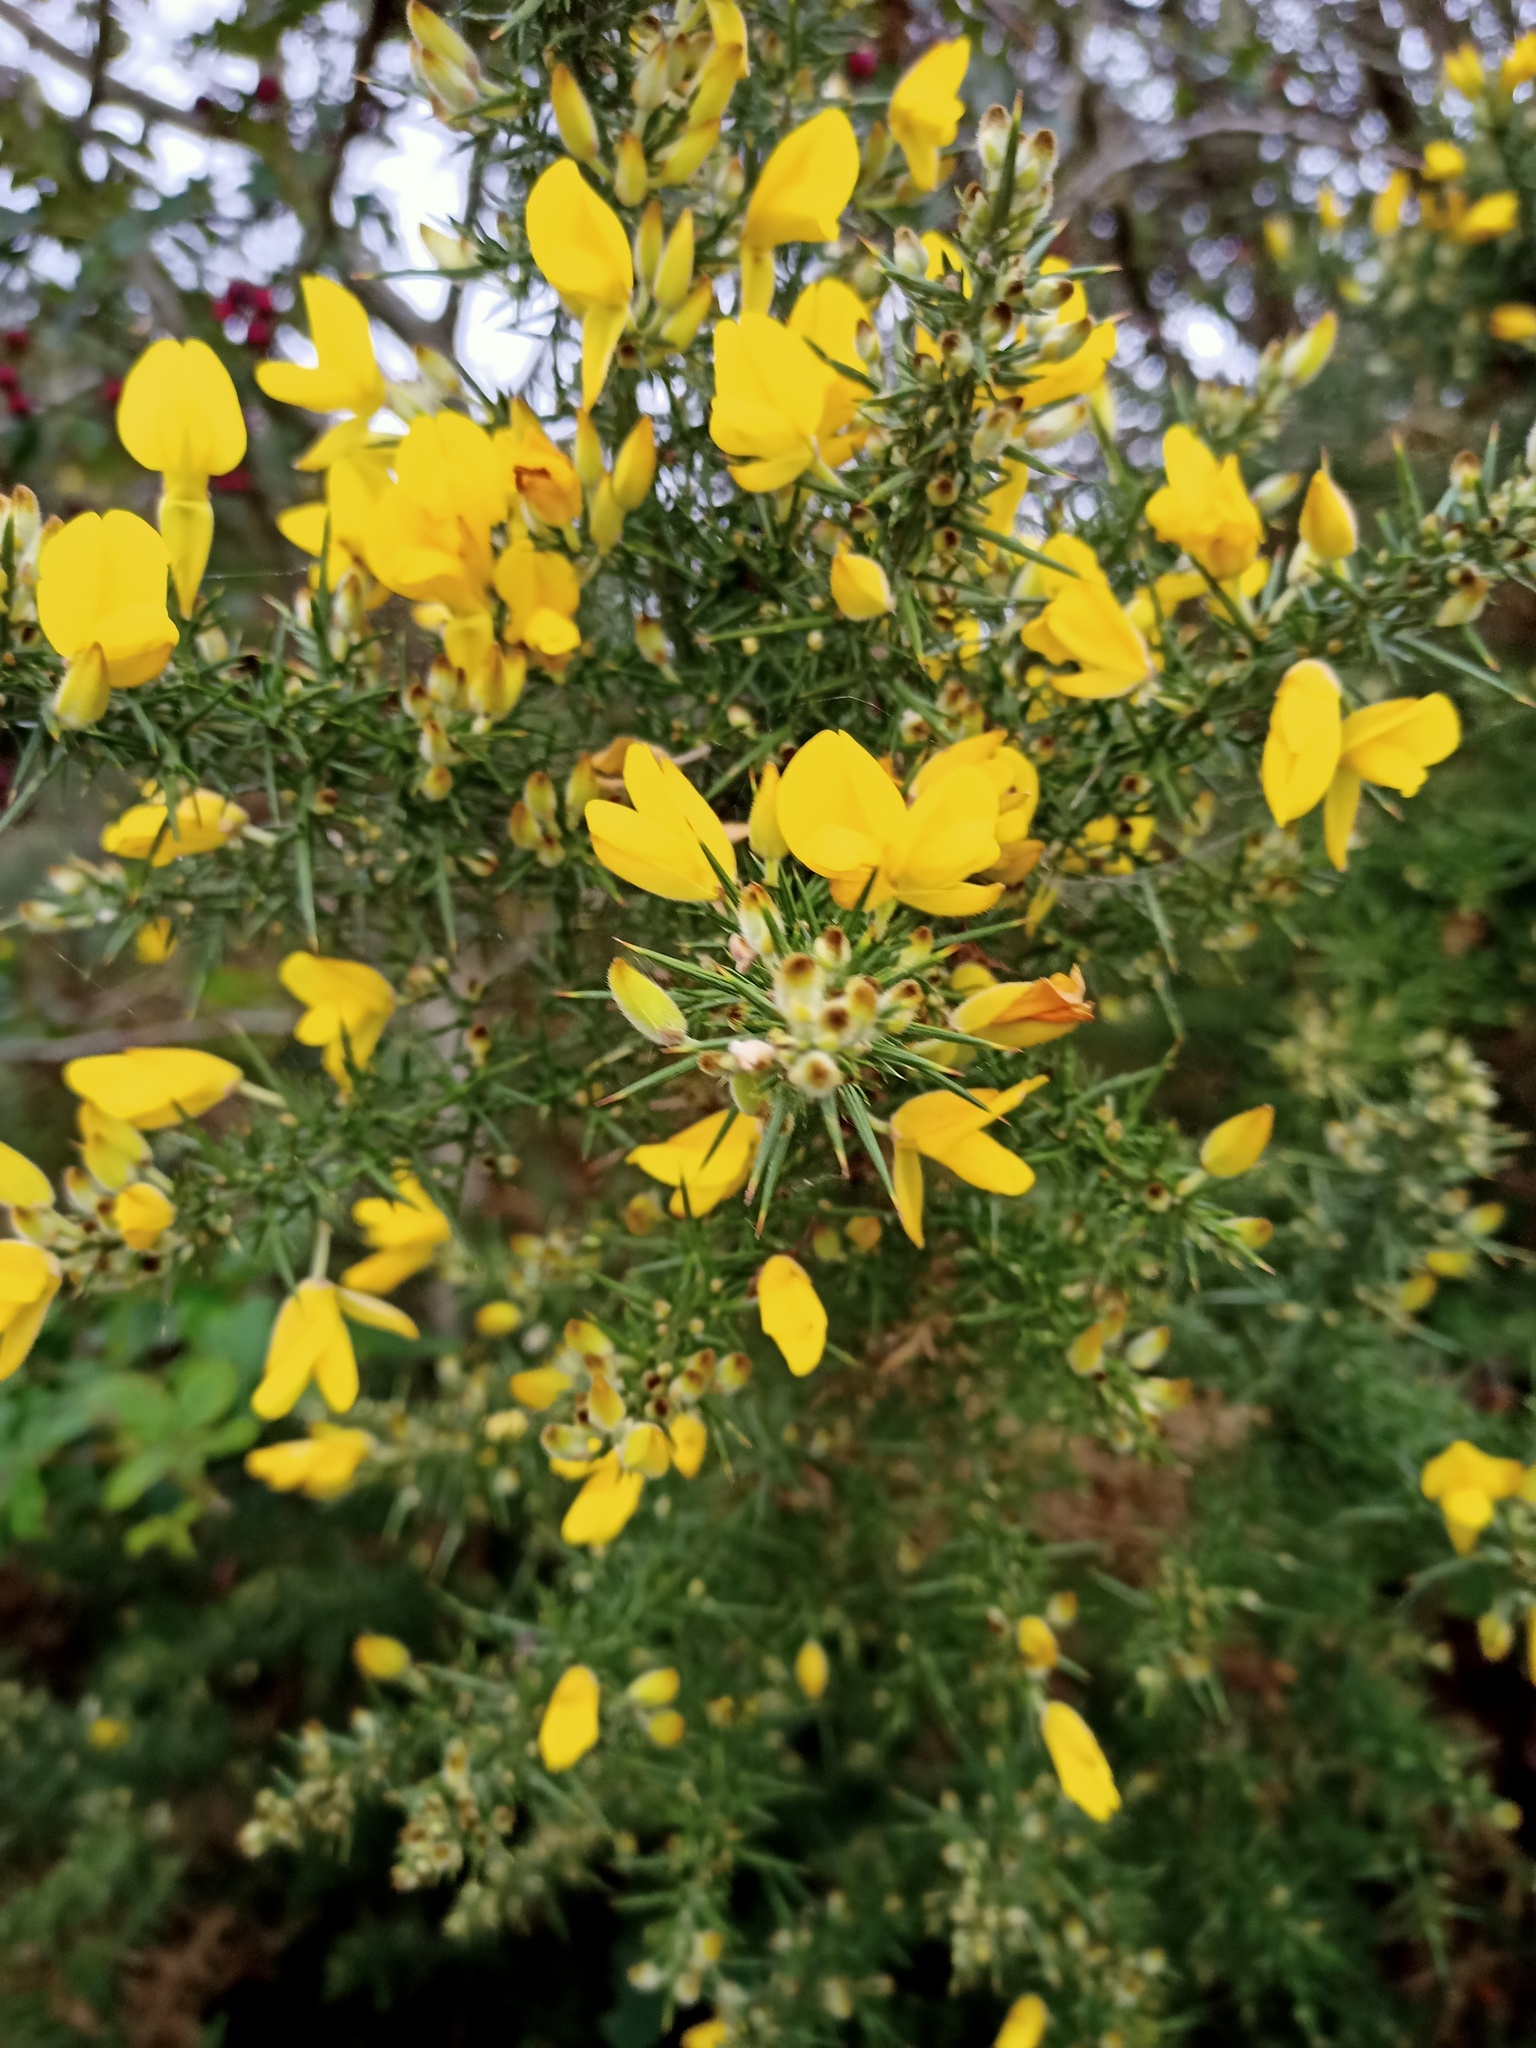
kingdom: Plantae
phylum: Tracheophyta
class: Magnoliopsida
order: Fabales
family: Fabaceae
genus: Ulex
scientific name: Ulex europaeus
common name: Common gorse
